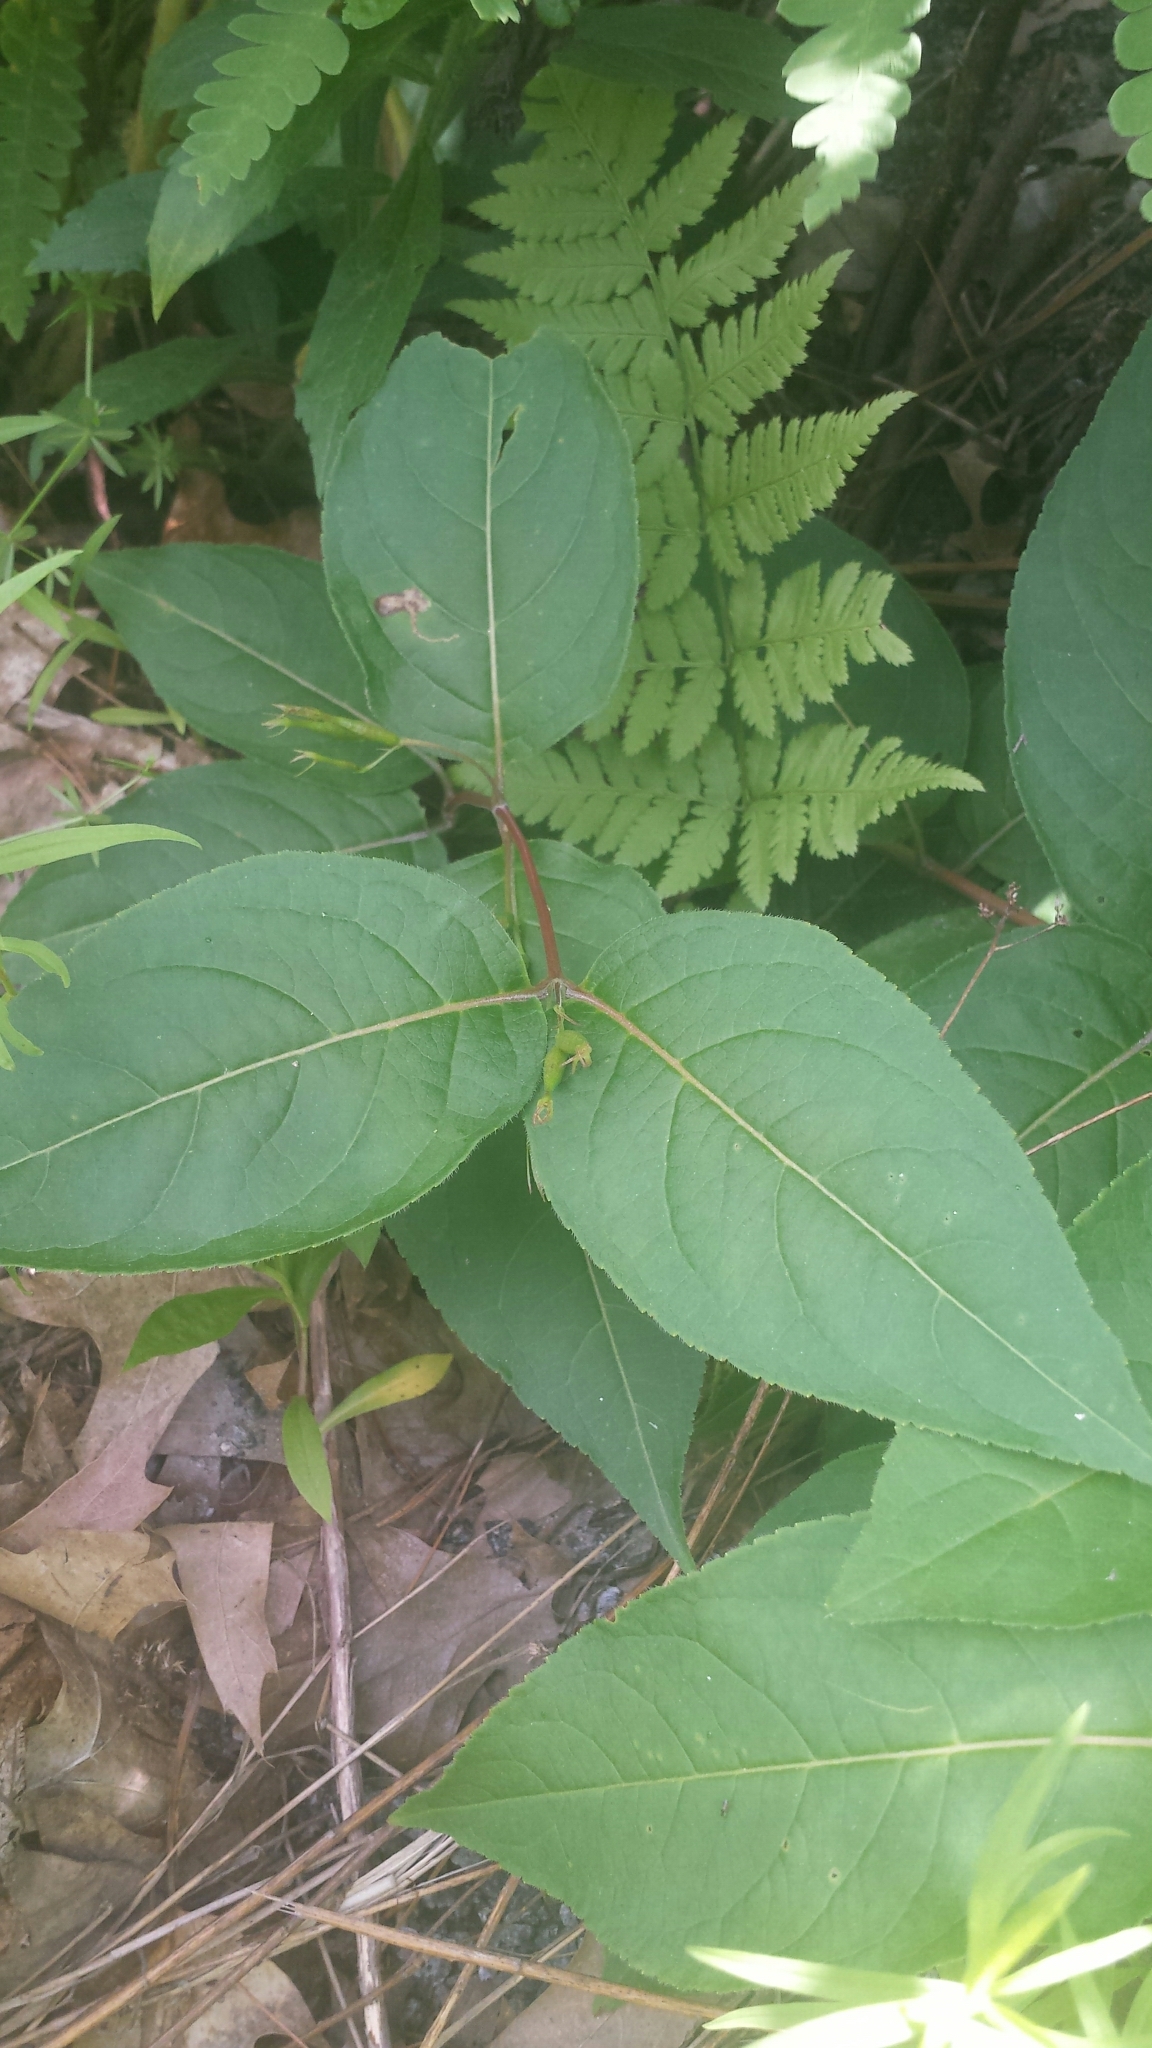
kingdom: Plantae
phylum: Tracheophyta
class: Magnoliopsida
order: Dipsacales
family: Caprifoliaceae
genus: Diervilla
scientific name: Diervilla lonicera
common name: Bush-honeysuckle
